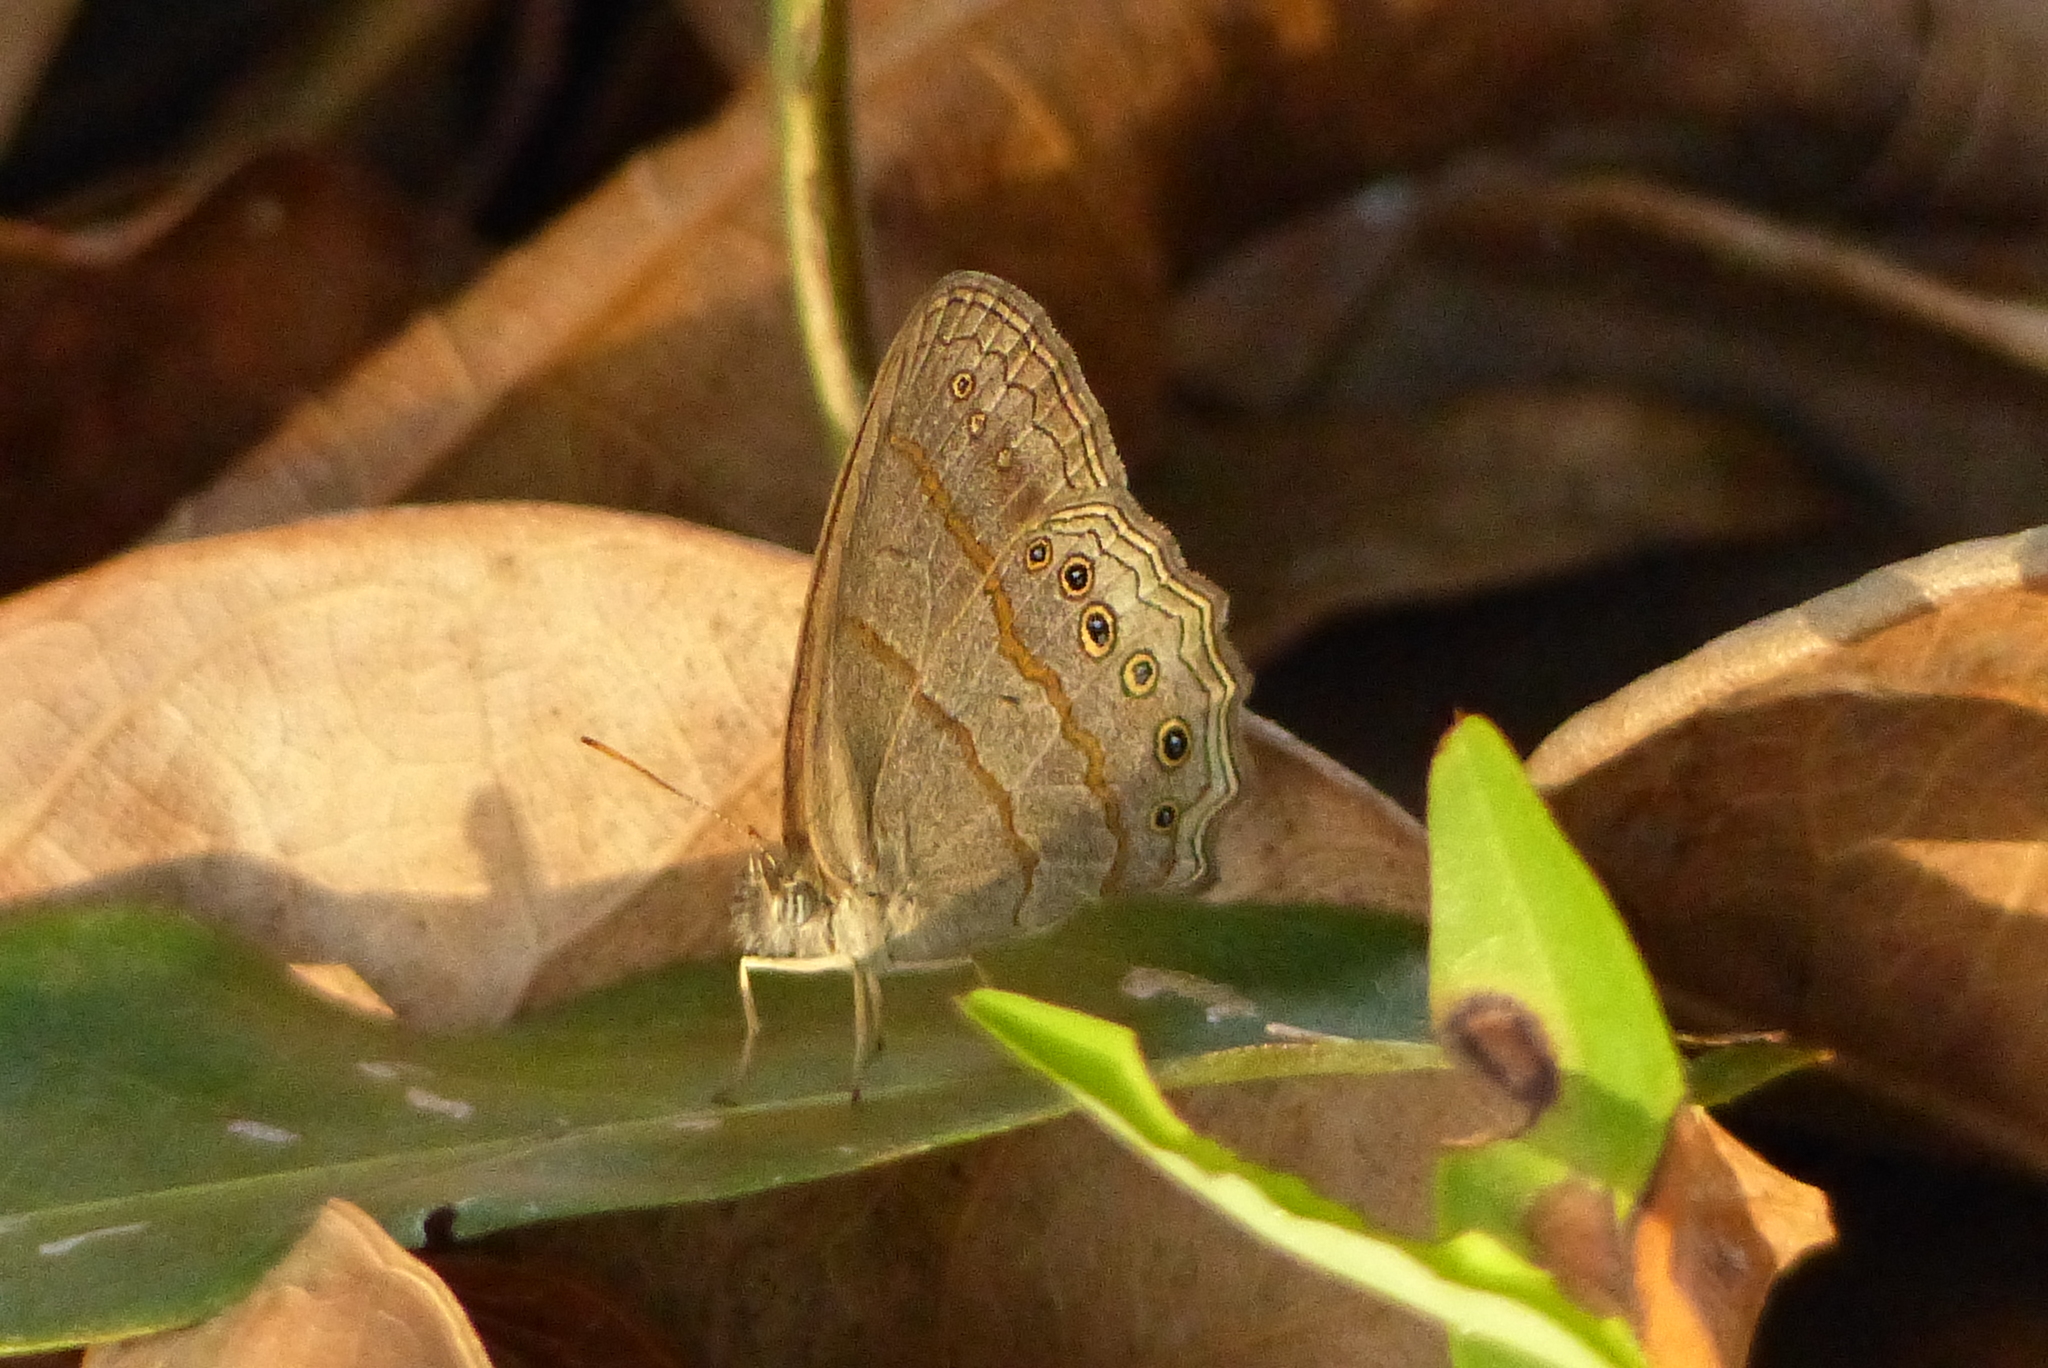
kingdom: Animalia
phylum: Arthropoda
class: Insecta
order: Lepidoptera
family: Nymphalidae
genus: Paryphthimoides
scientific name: Paryphthimoides poltys
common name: Poltys satyr
